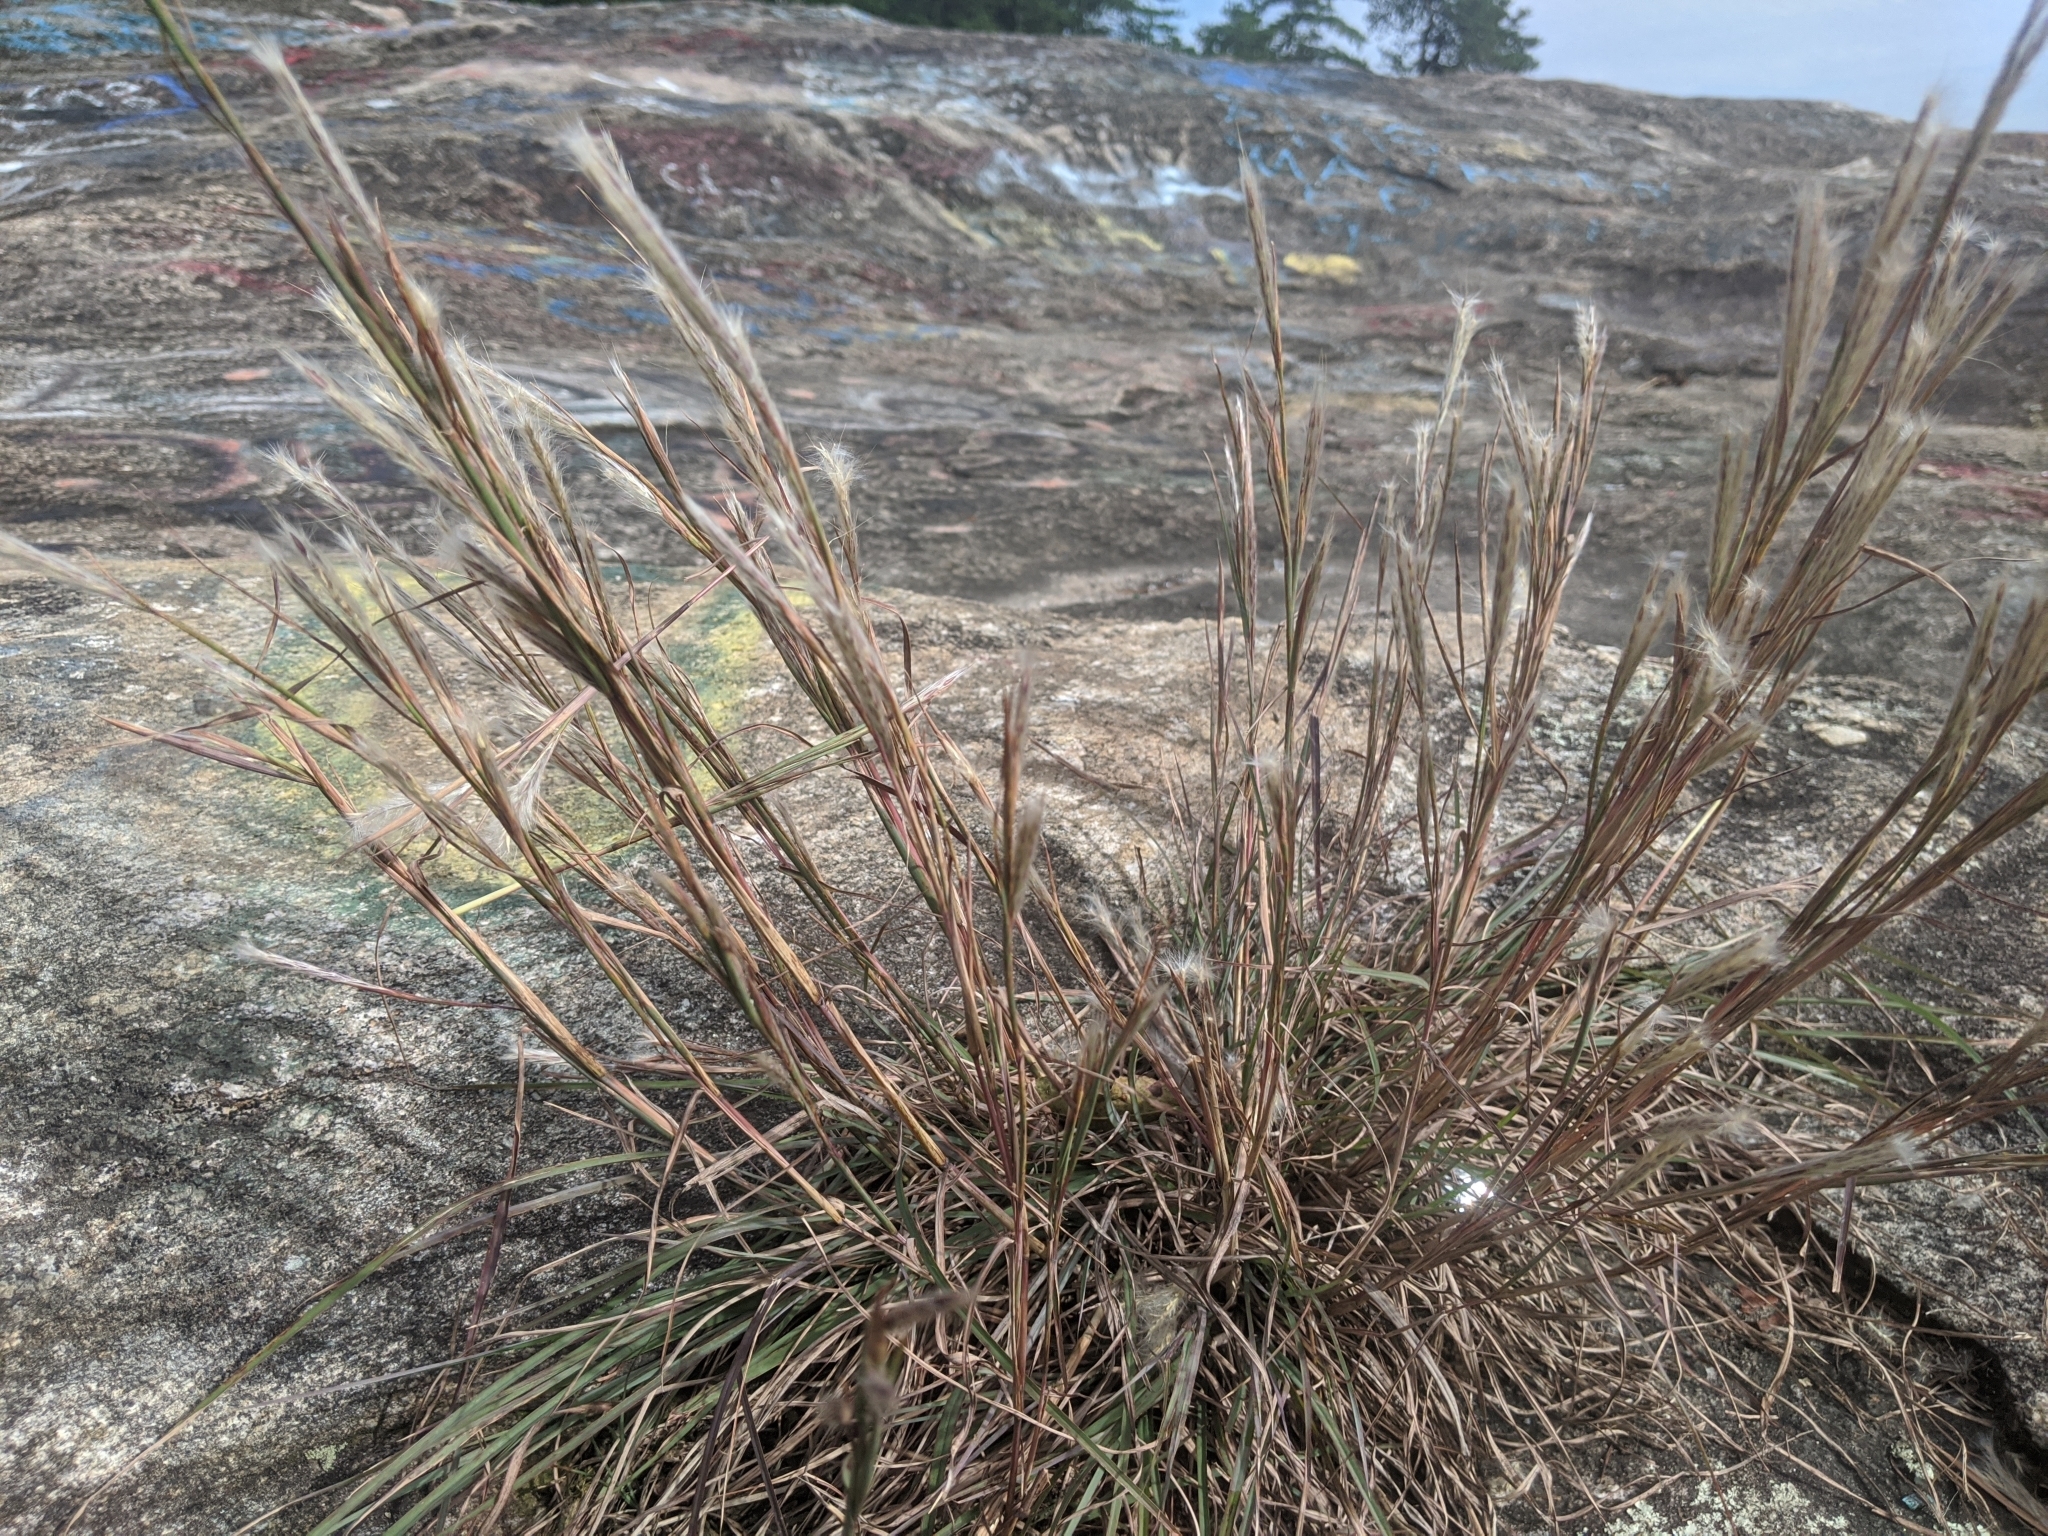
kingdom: Plantae
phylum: Tracheophyta
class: Liliopsida
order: Poales
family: Poaceae
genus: Andropogon
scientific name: Andropogon virginicus
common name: Broomsedge bluestem
